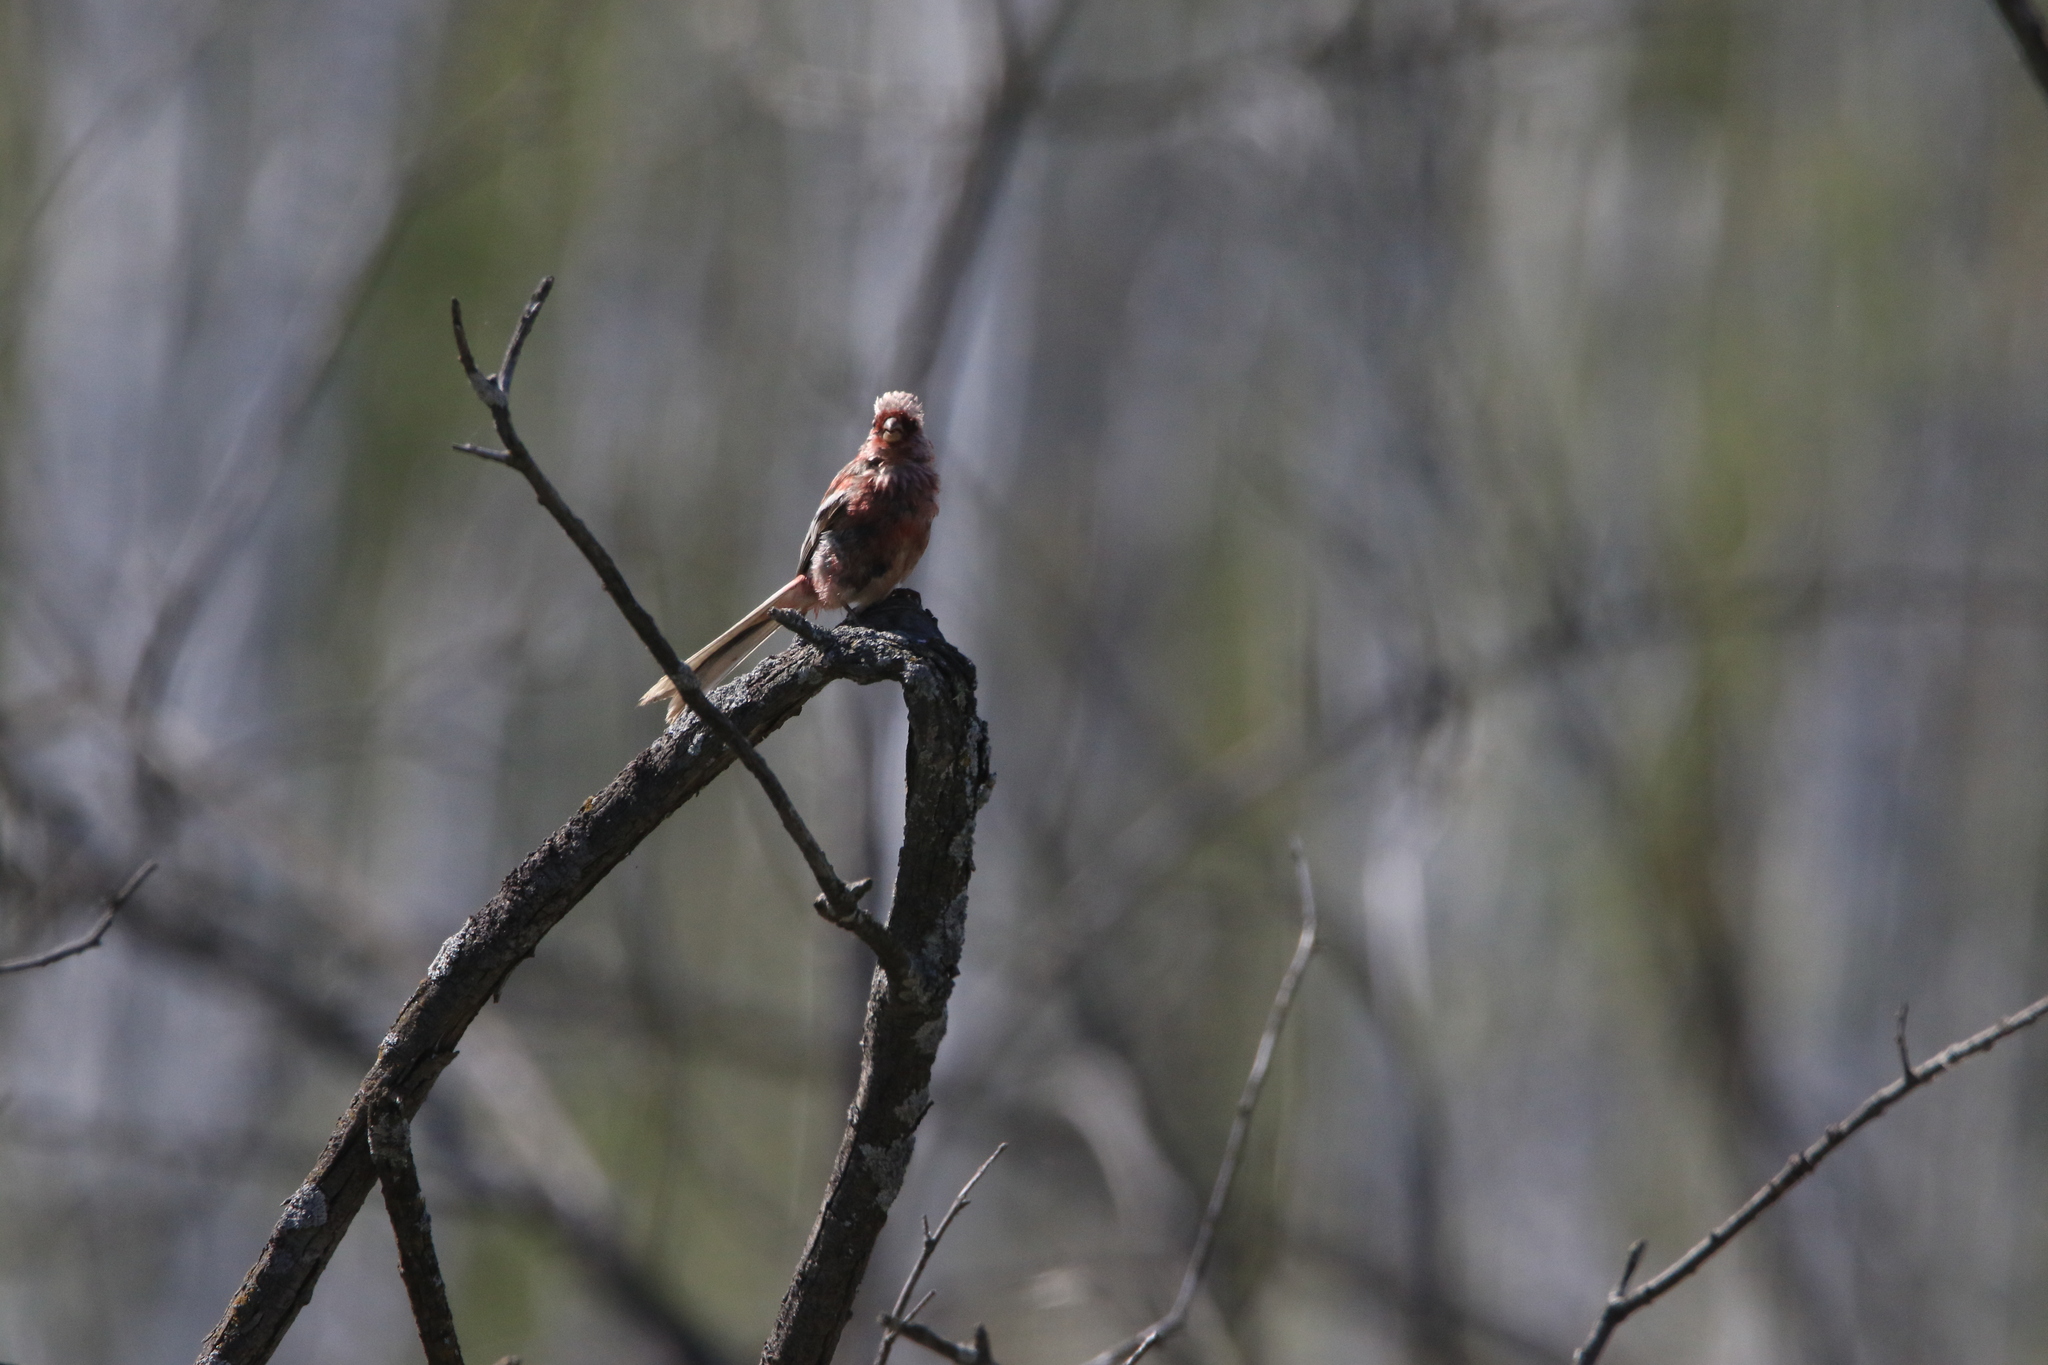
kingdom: Animalia
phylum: Chordata
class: Aves
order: Passeriformes
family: Fringillidae
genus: Carpodacus
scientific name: Carpodacus sibiricus
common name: Long-tailed rosefinch
